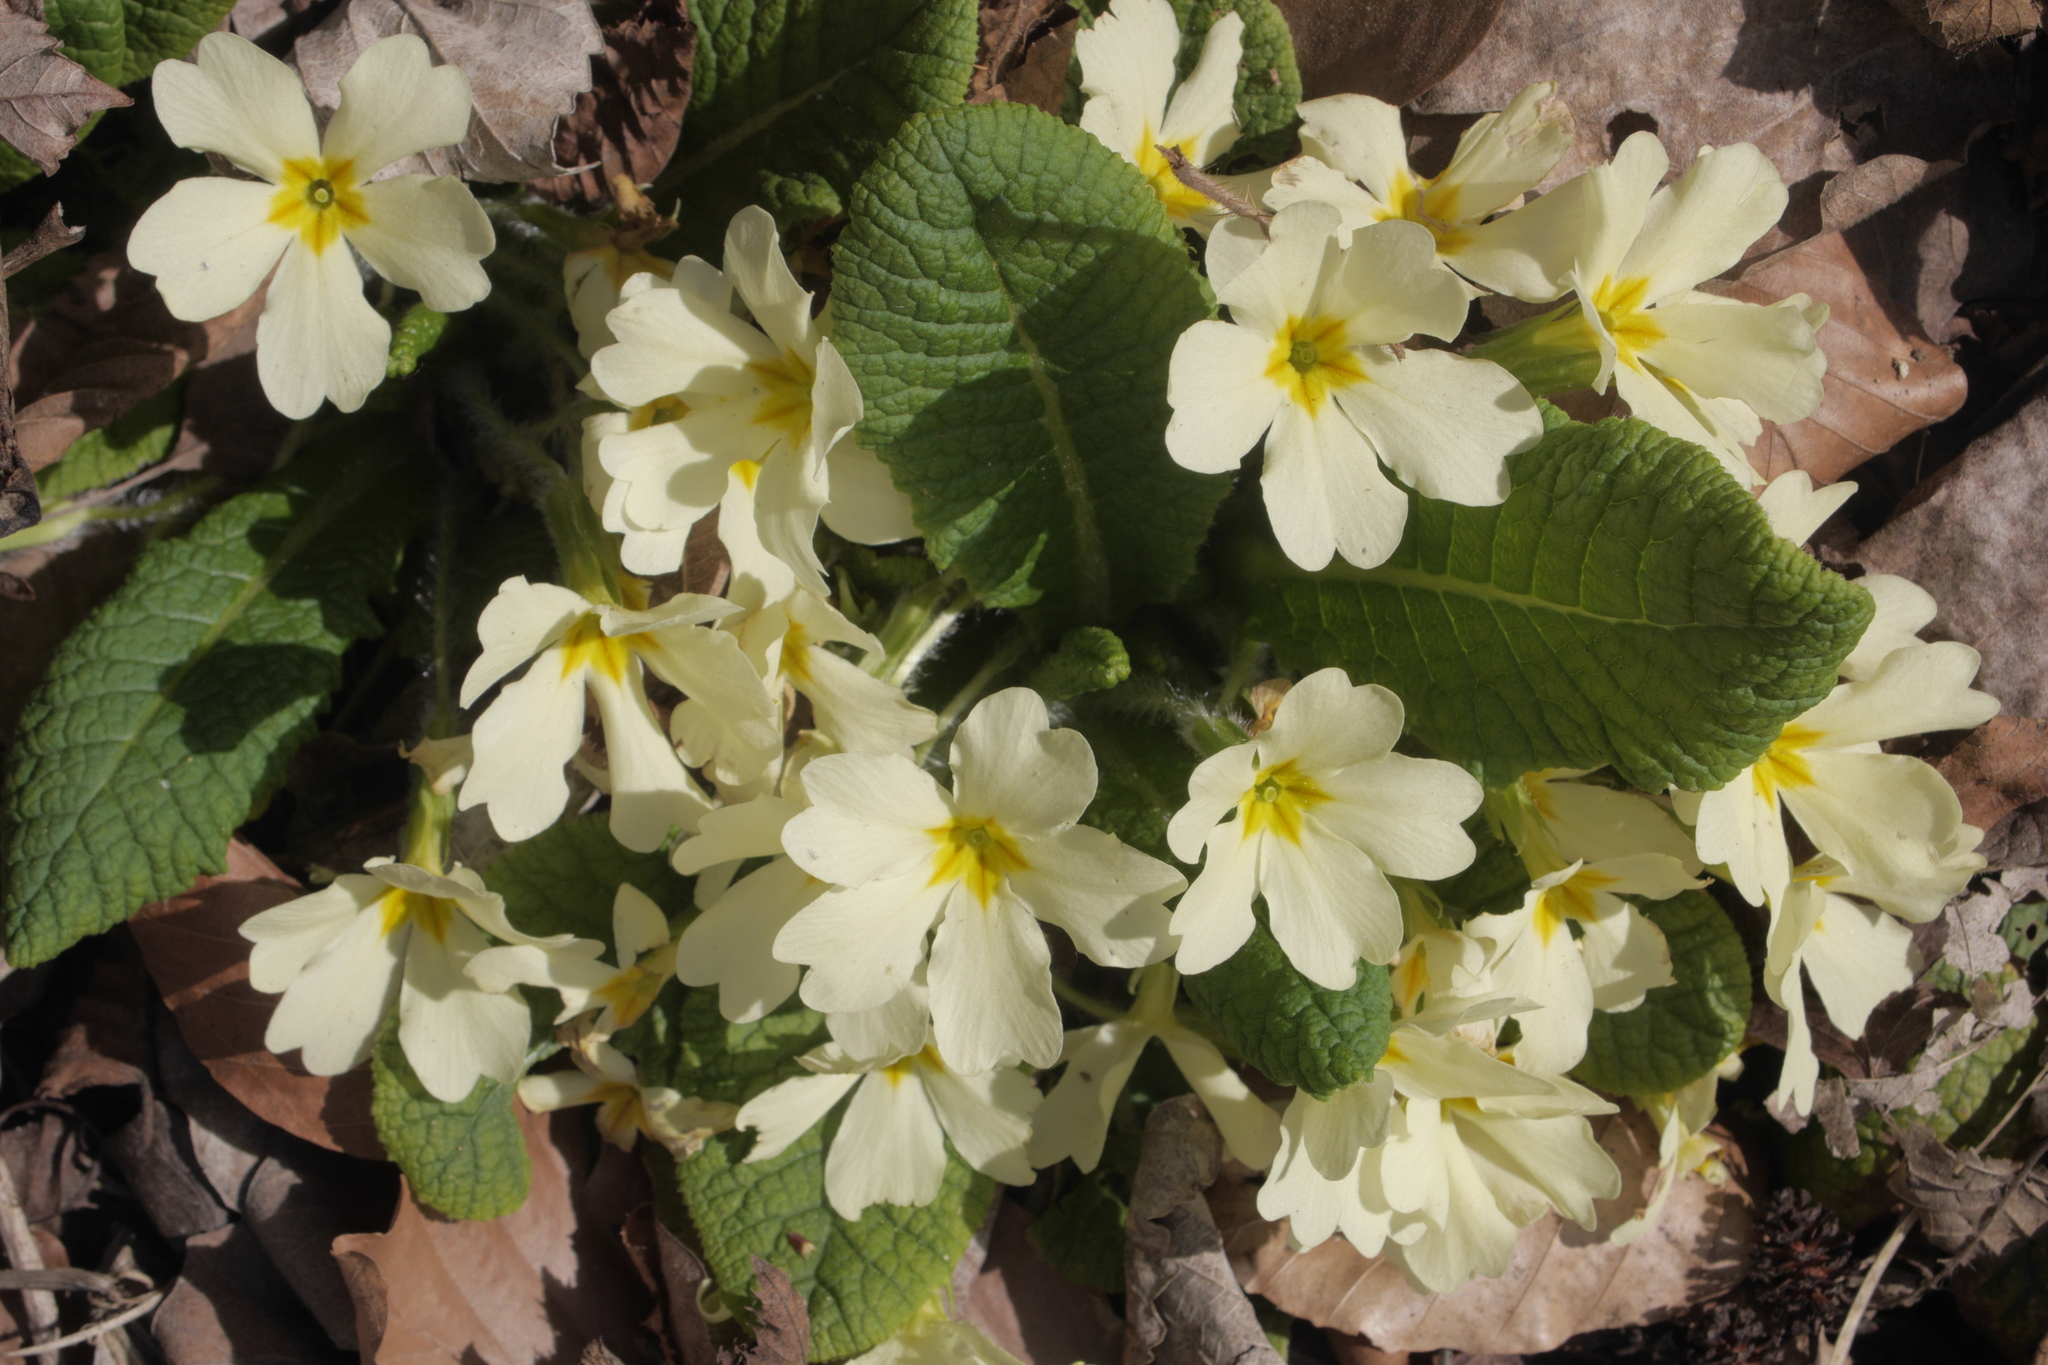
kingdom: Plantae
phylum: Tracheophyta
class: Magnoliopsida
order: Ericales
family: Primulaceae
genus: Primula
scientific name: Primula vulgaris
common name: Primrose
